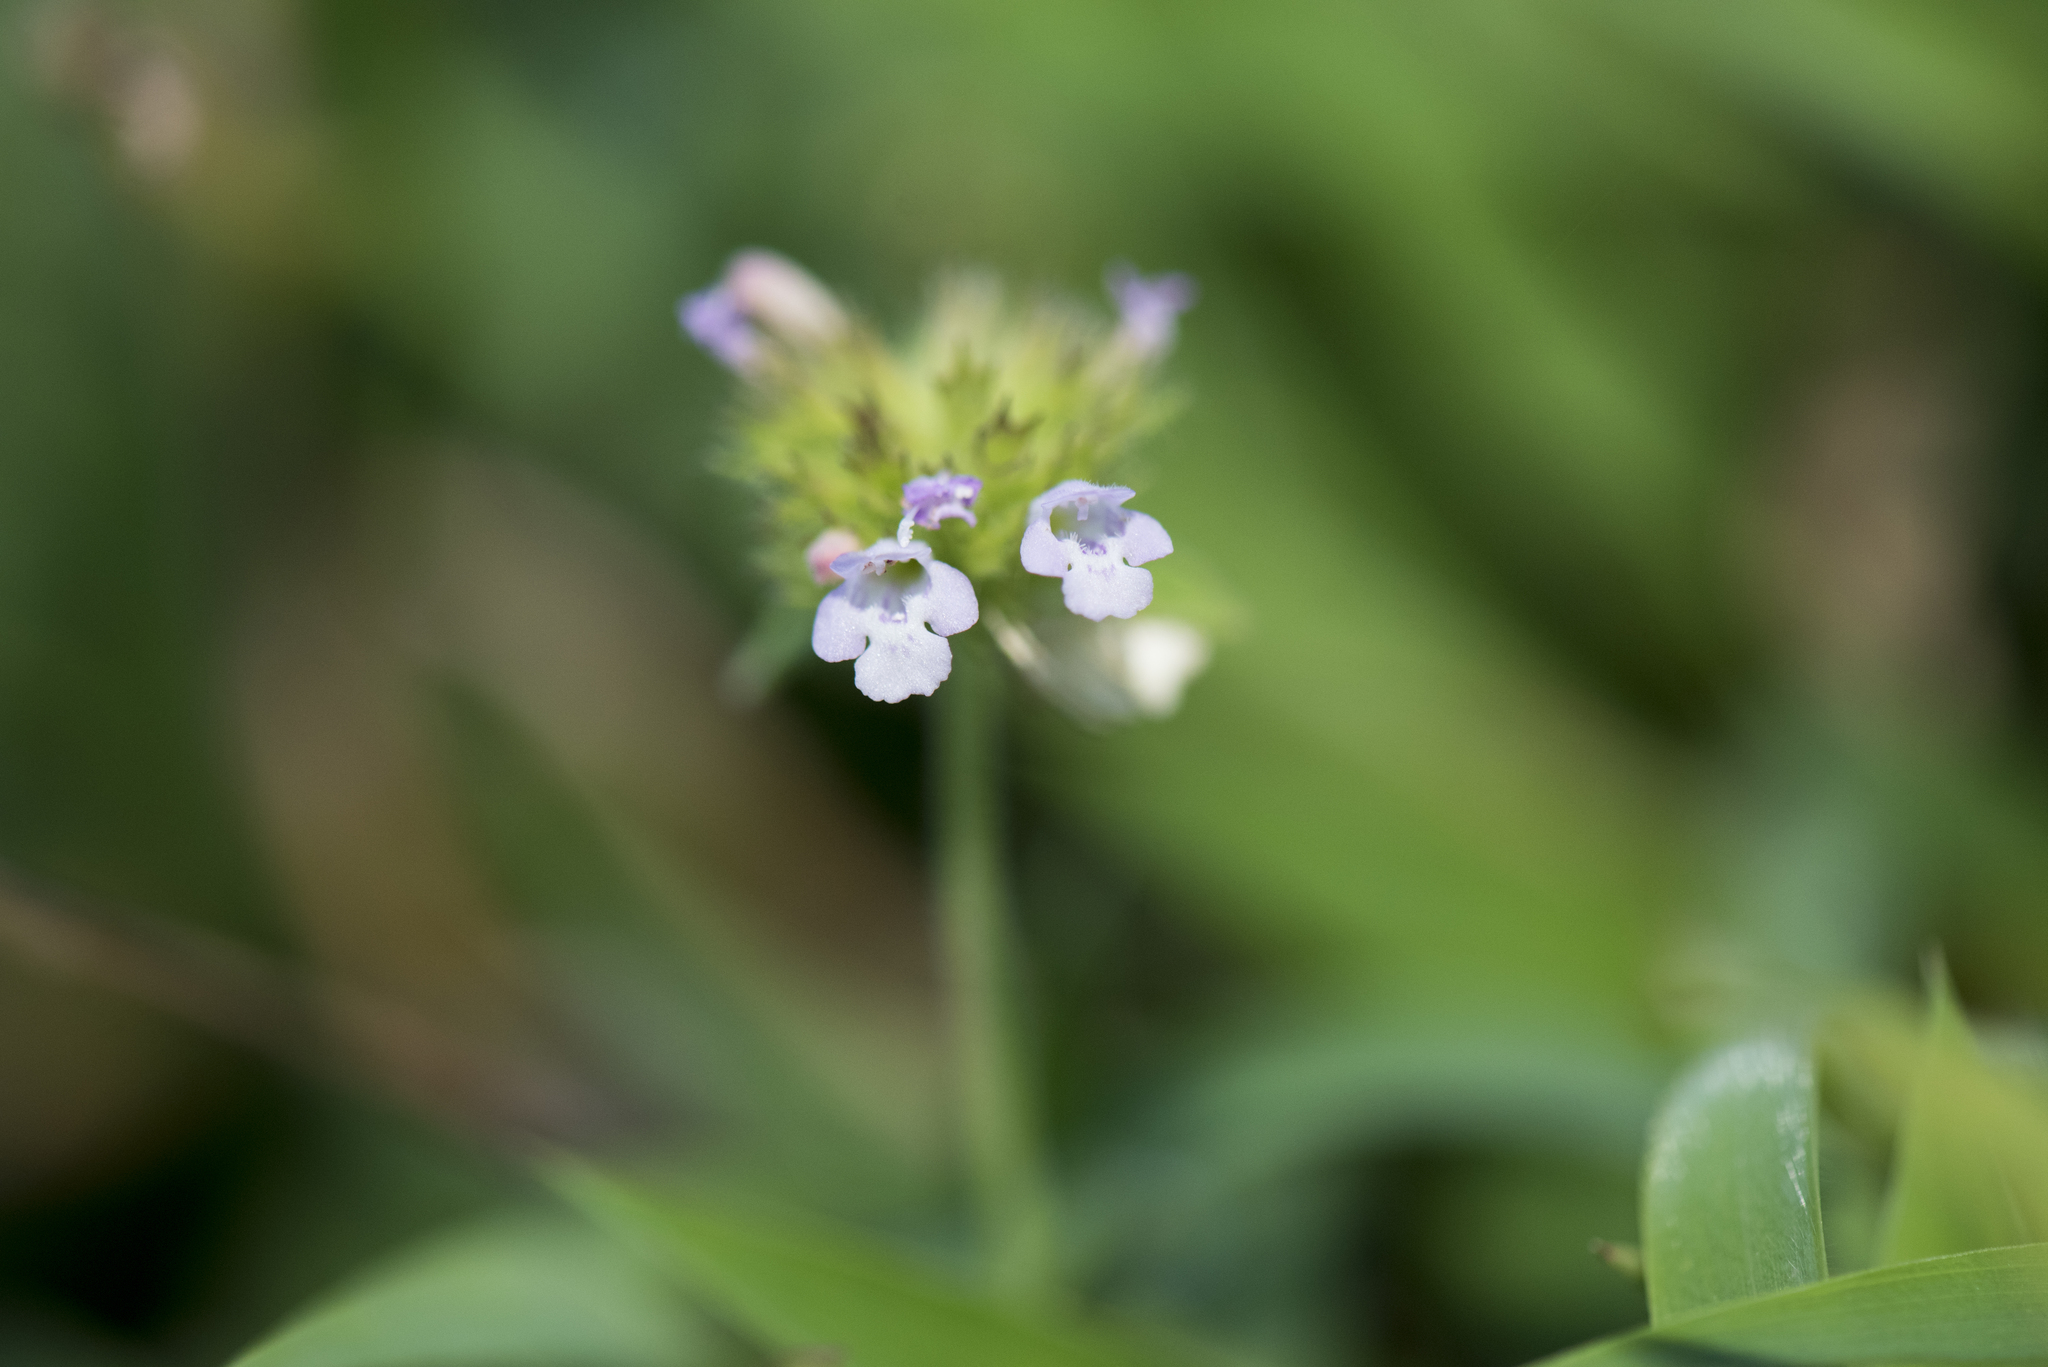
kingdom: Plantae
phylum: Tracheophyta
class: Magnoliopsida
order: Lamiales
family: Lamiaceae
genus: Clinopodium
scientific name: Clinopodium chinense
